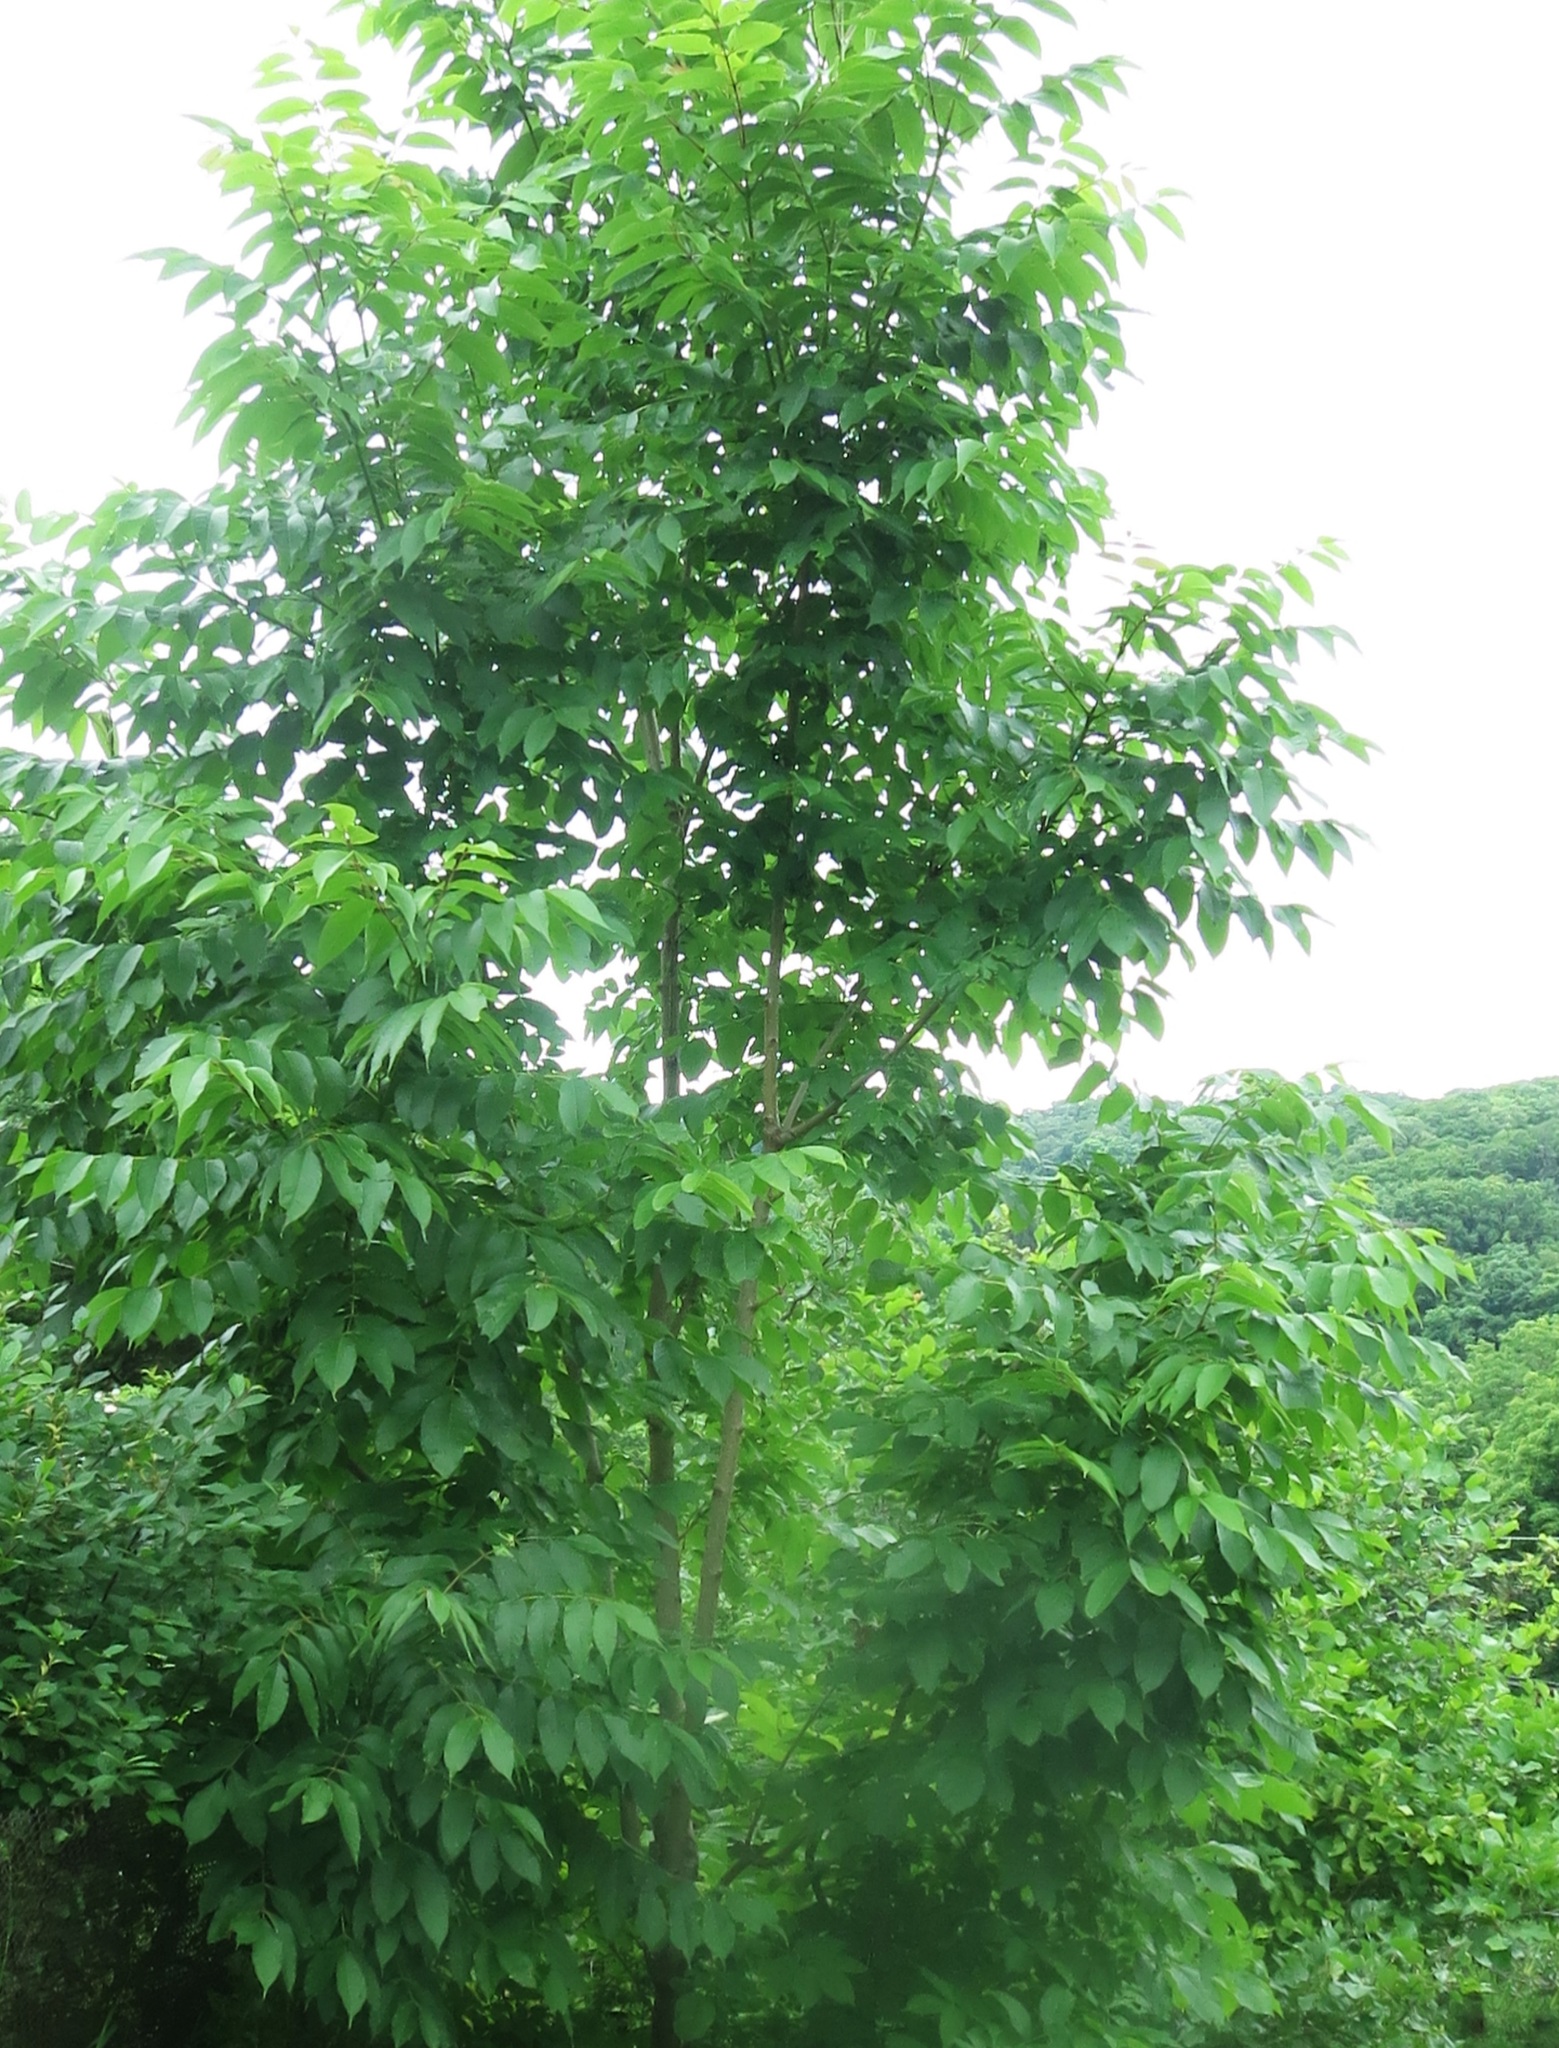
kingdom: Plantae
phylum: Tracheophyta
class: Magnoliopsida
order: Lamiales
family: Oleaceae
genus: Fraxinus
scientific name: Fraxinus mandshurica
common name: Manchurian ash
